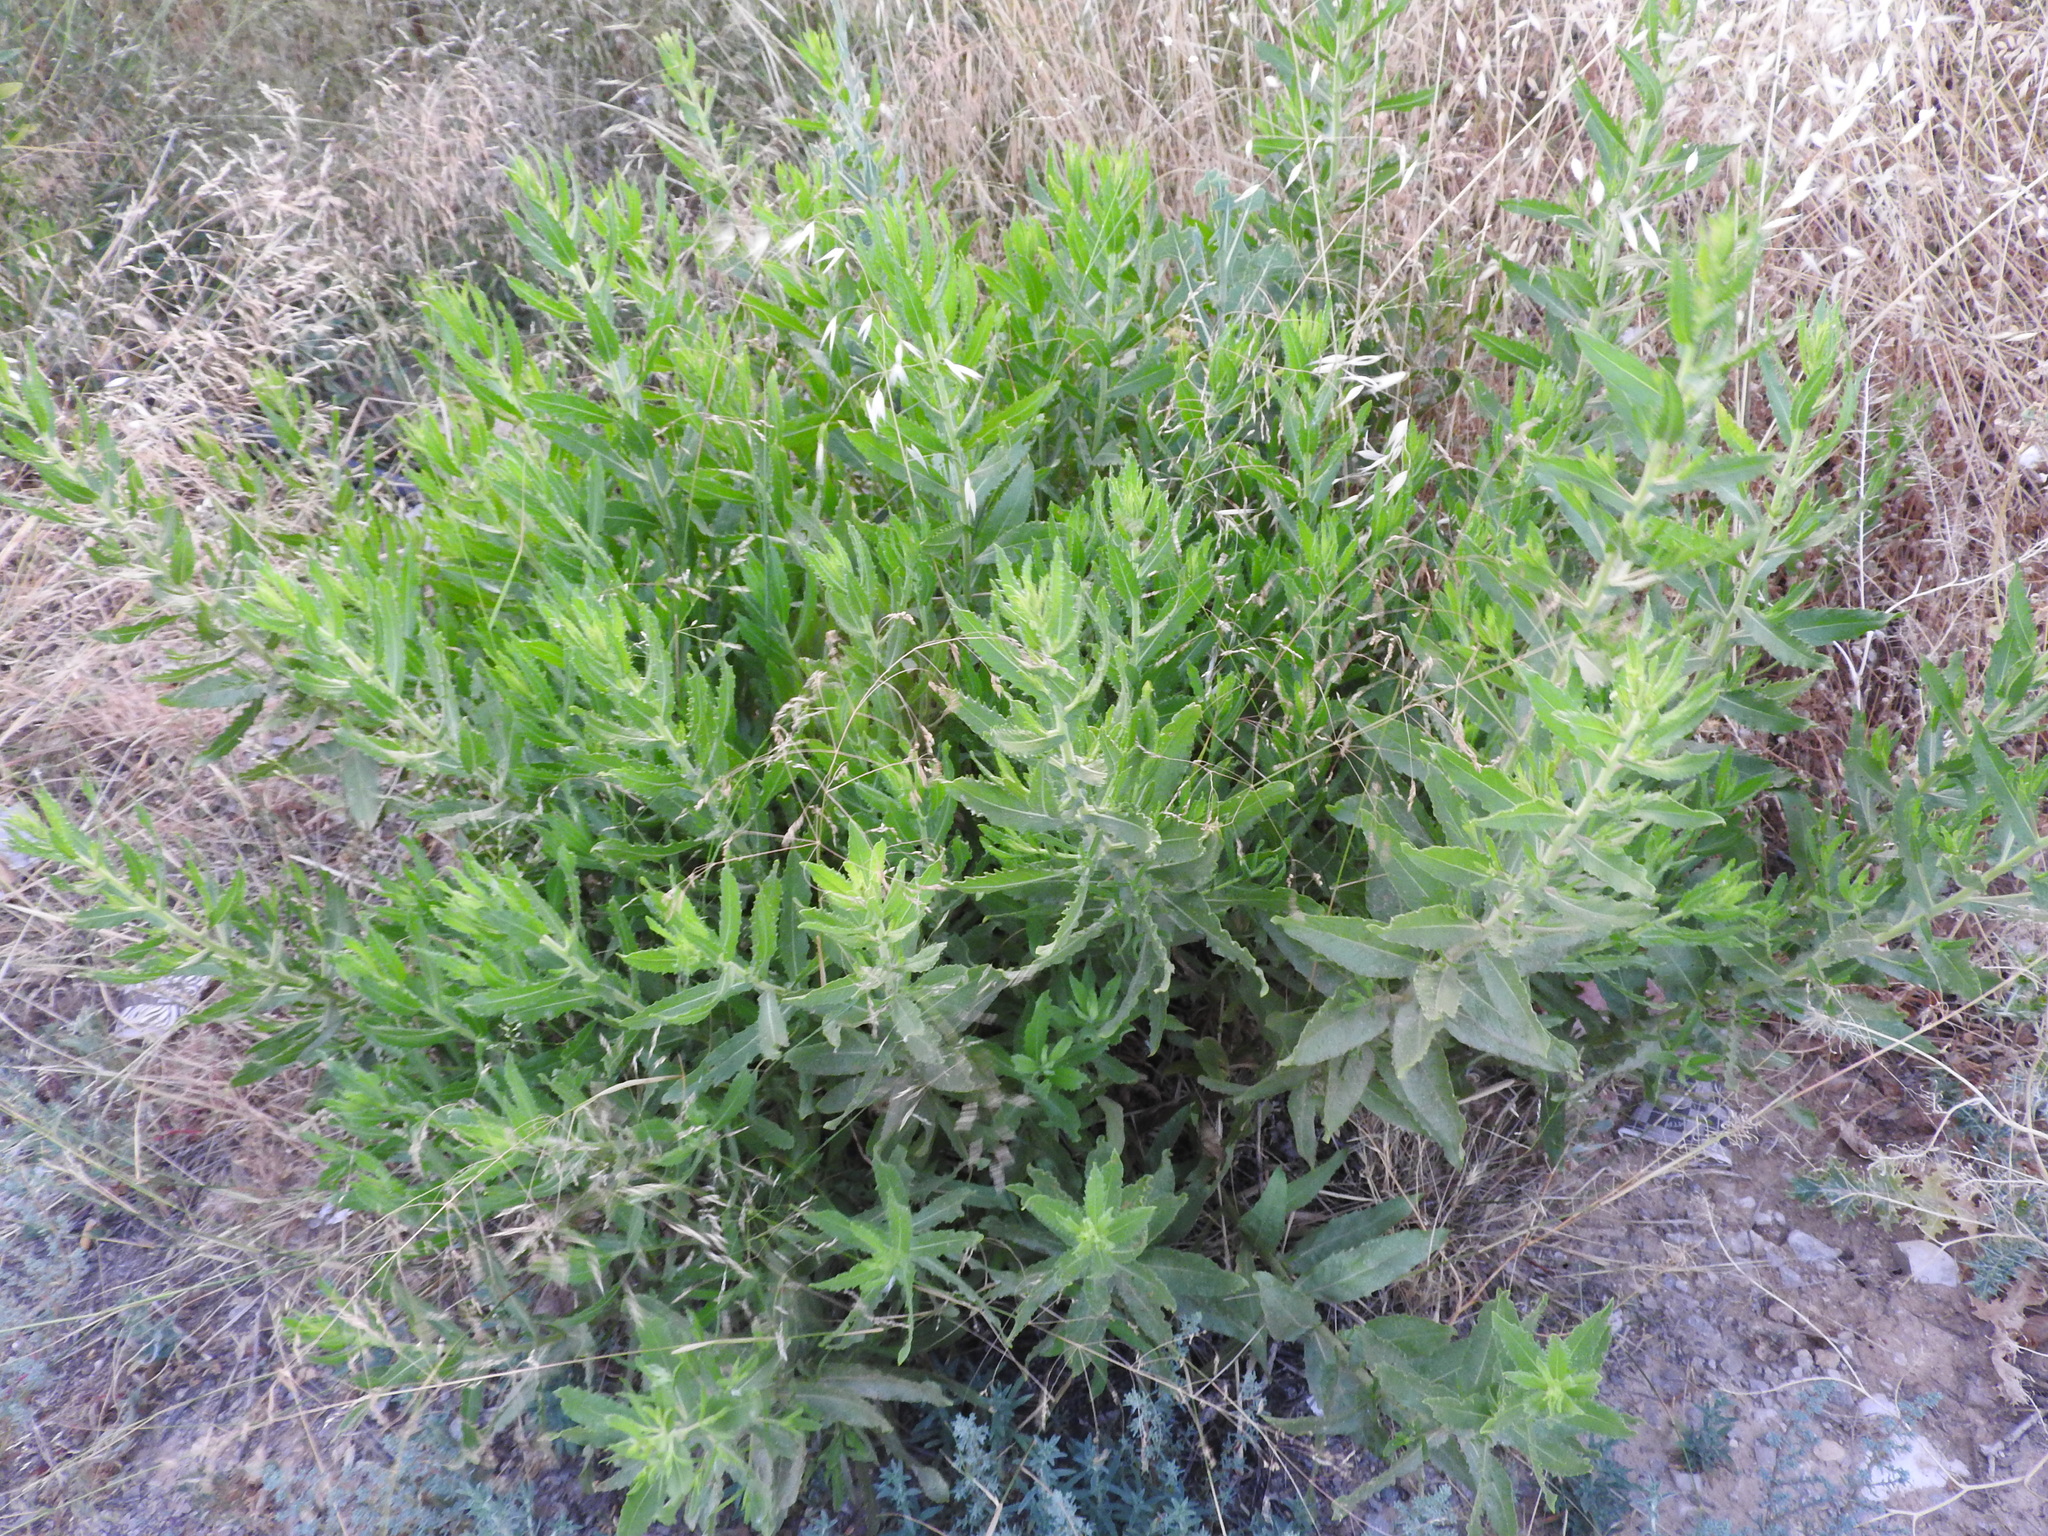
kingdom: Plantae
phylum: Tracheophyta
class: Magnoliopsida
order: Asterales
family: Asteraceae
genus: Dittrichia
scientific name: Dittrichia viscosa
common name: Woody fleabane
